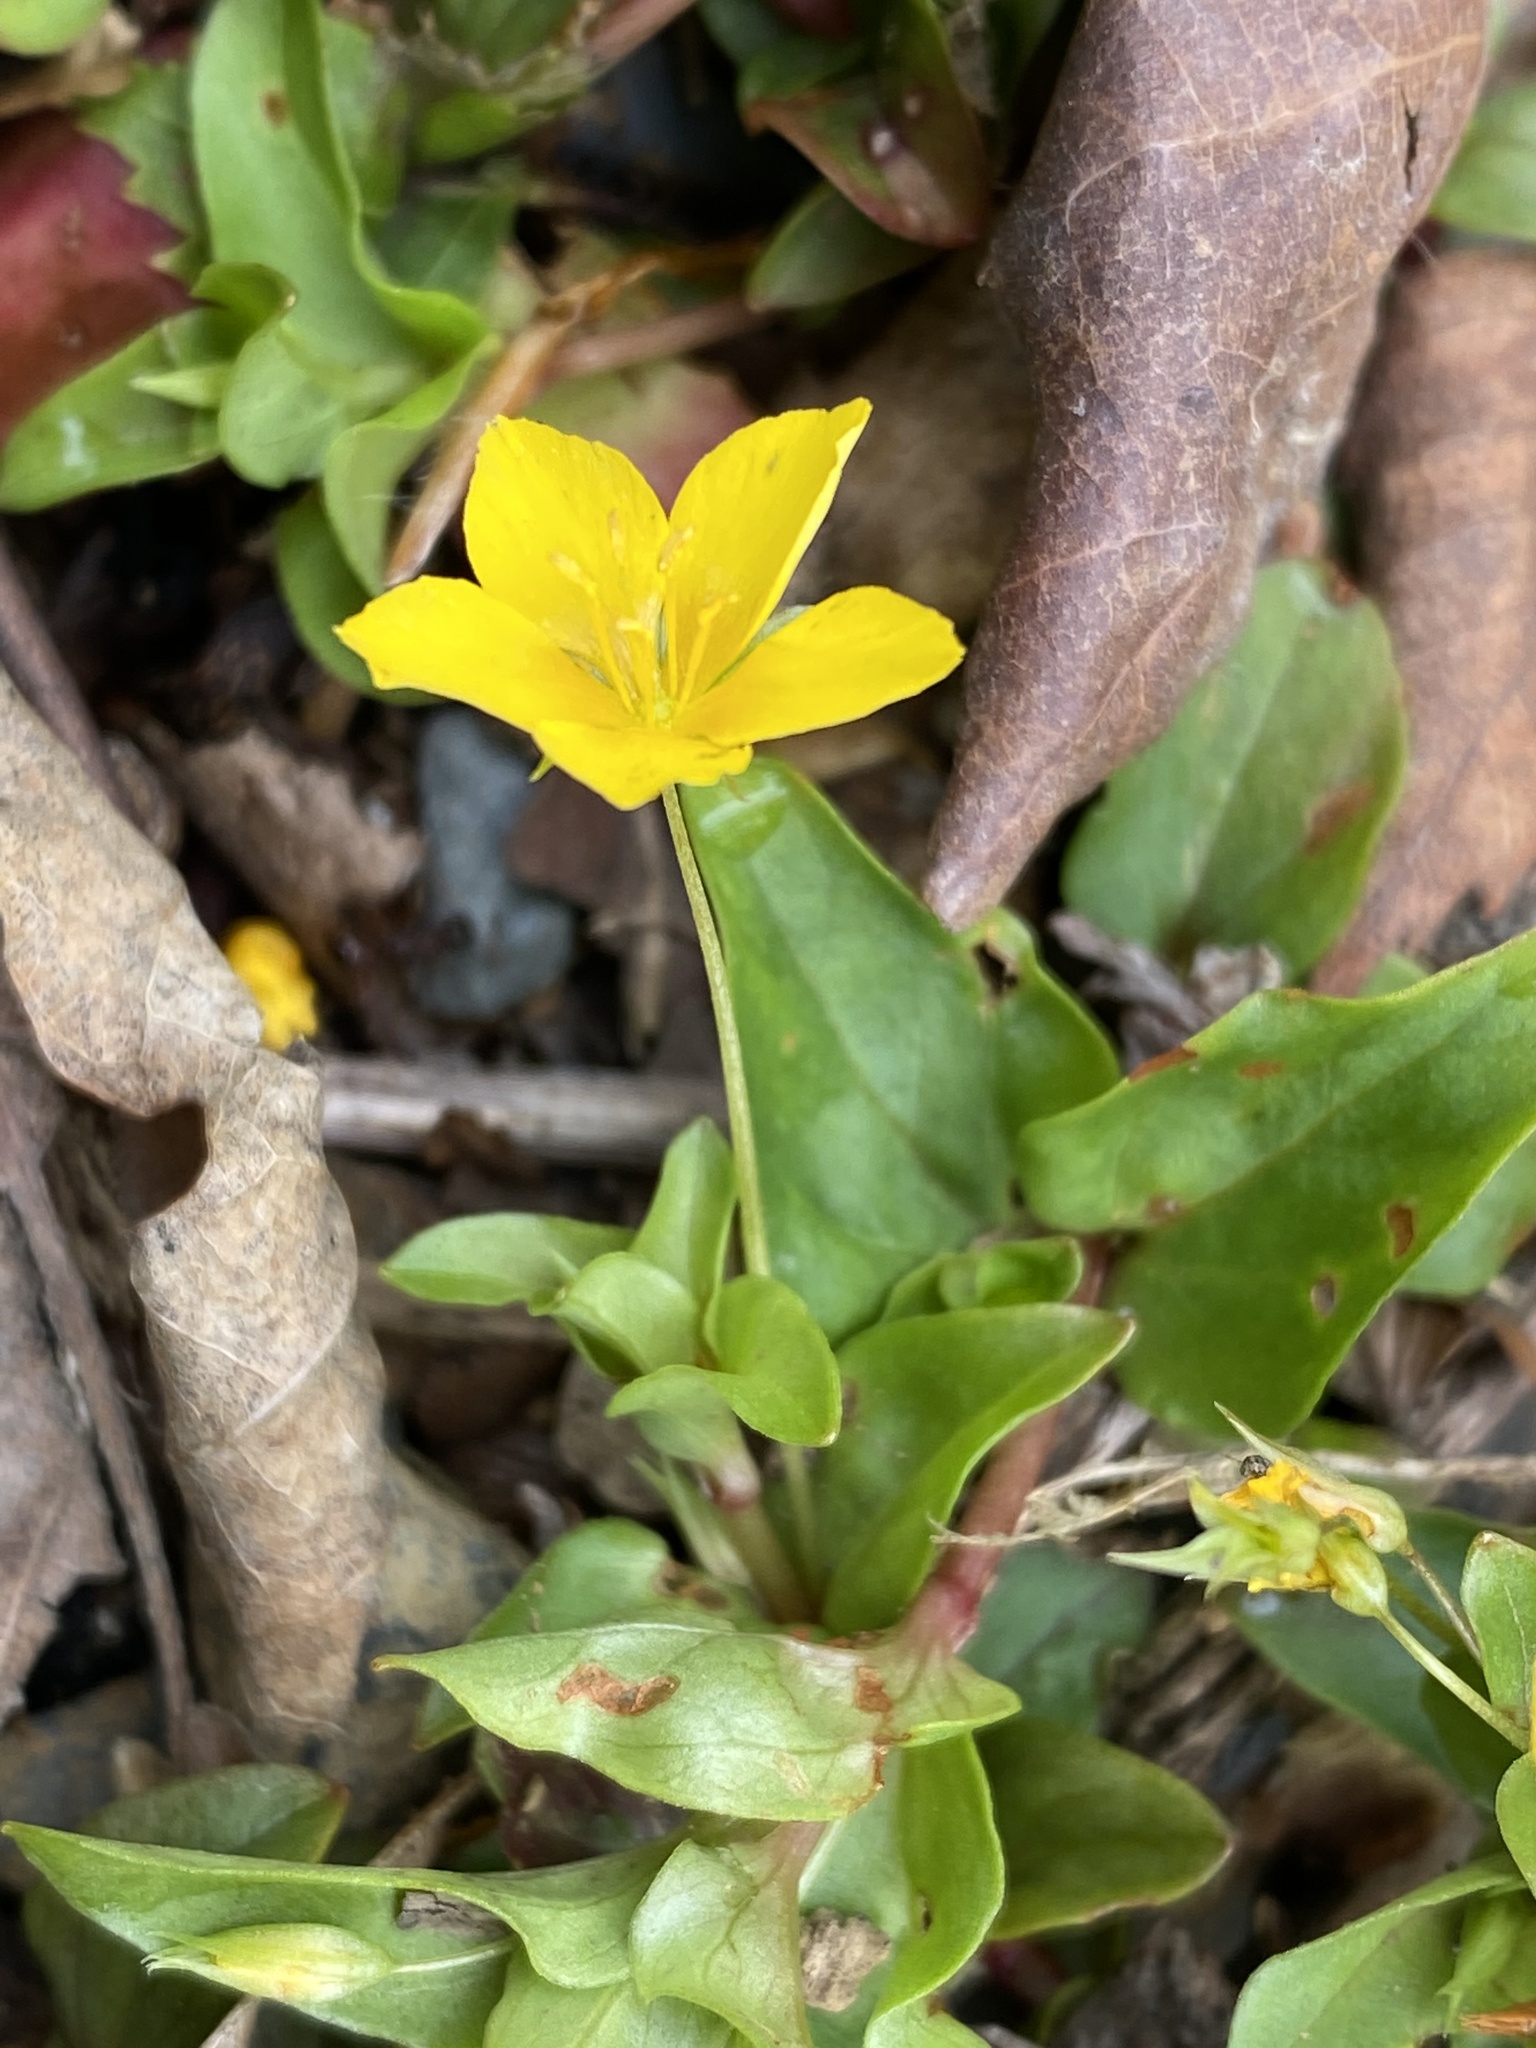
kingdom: Plantae
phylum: Tracheophyta
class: Magnoliopsida
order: Ericales
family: Primulaceae
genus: Lysimachia
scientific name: Lysimachia nemorum
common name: Yellow pimpernel
